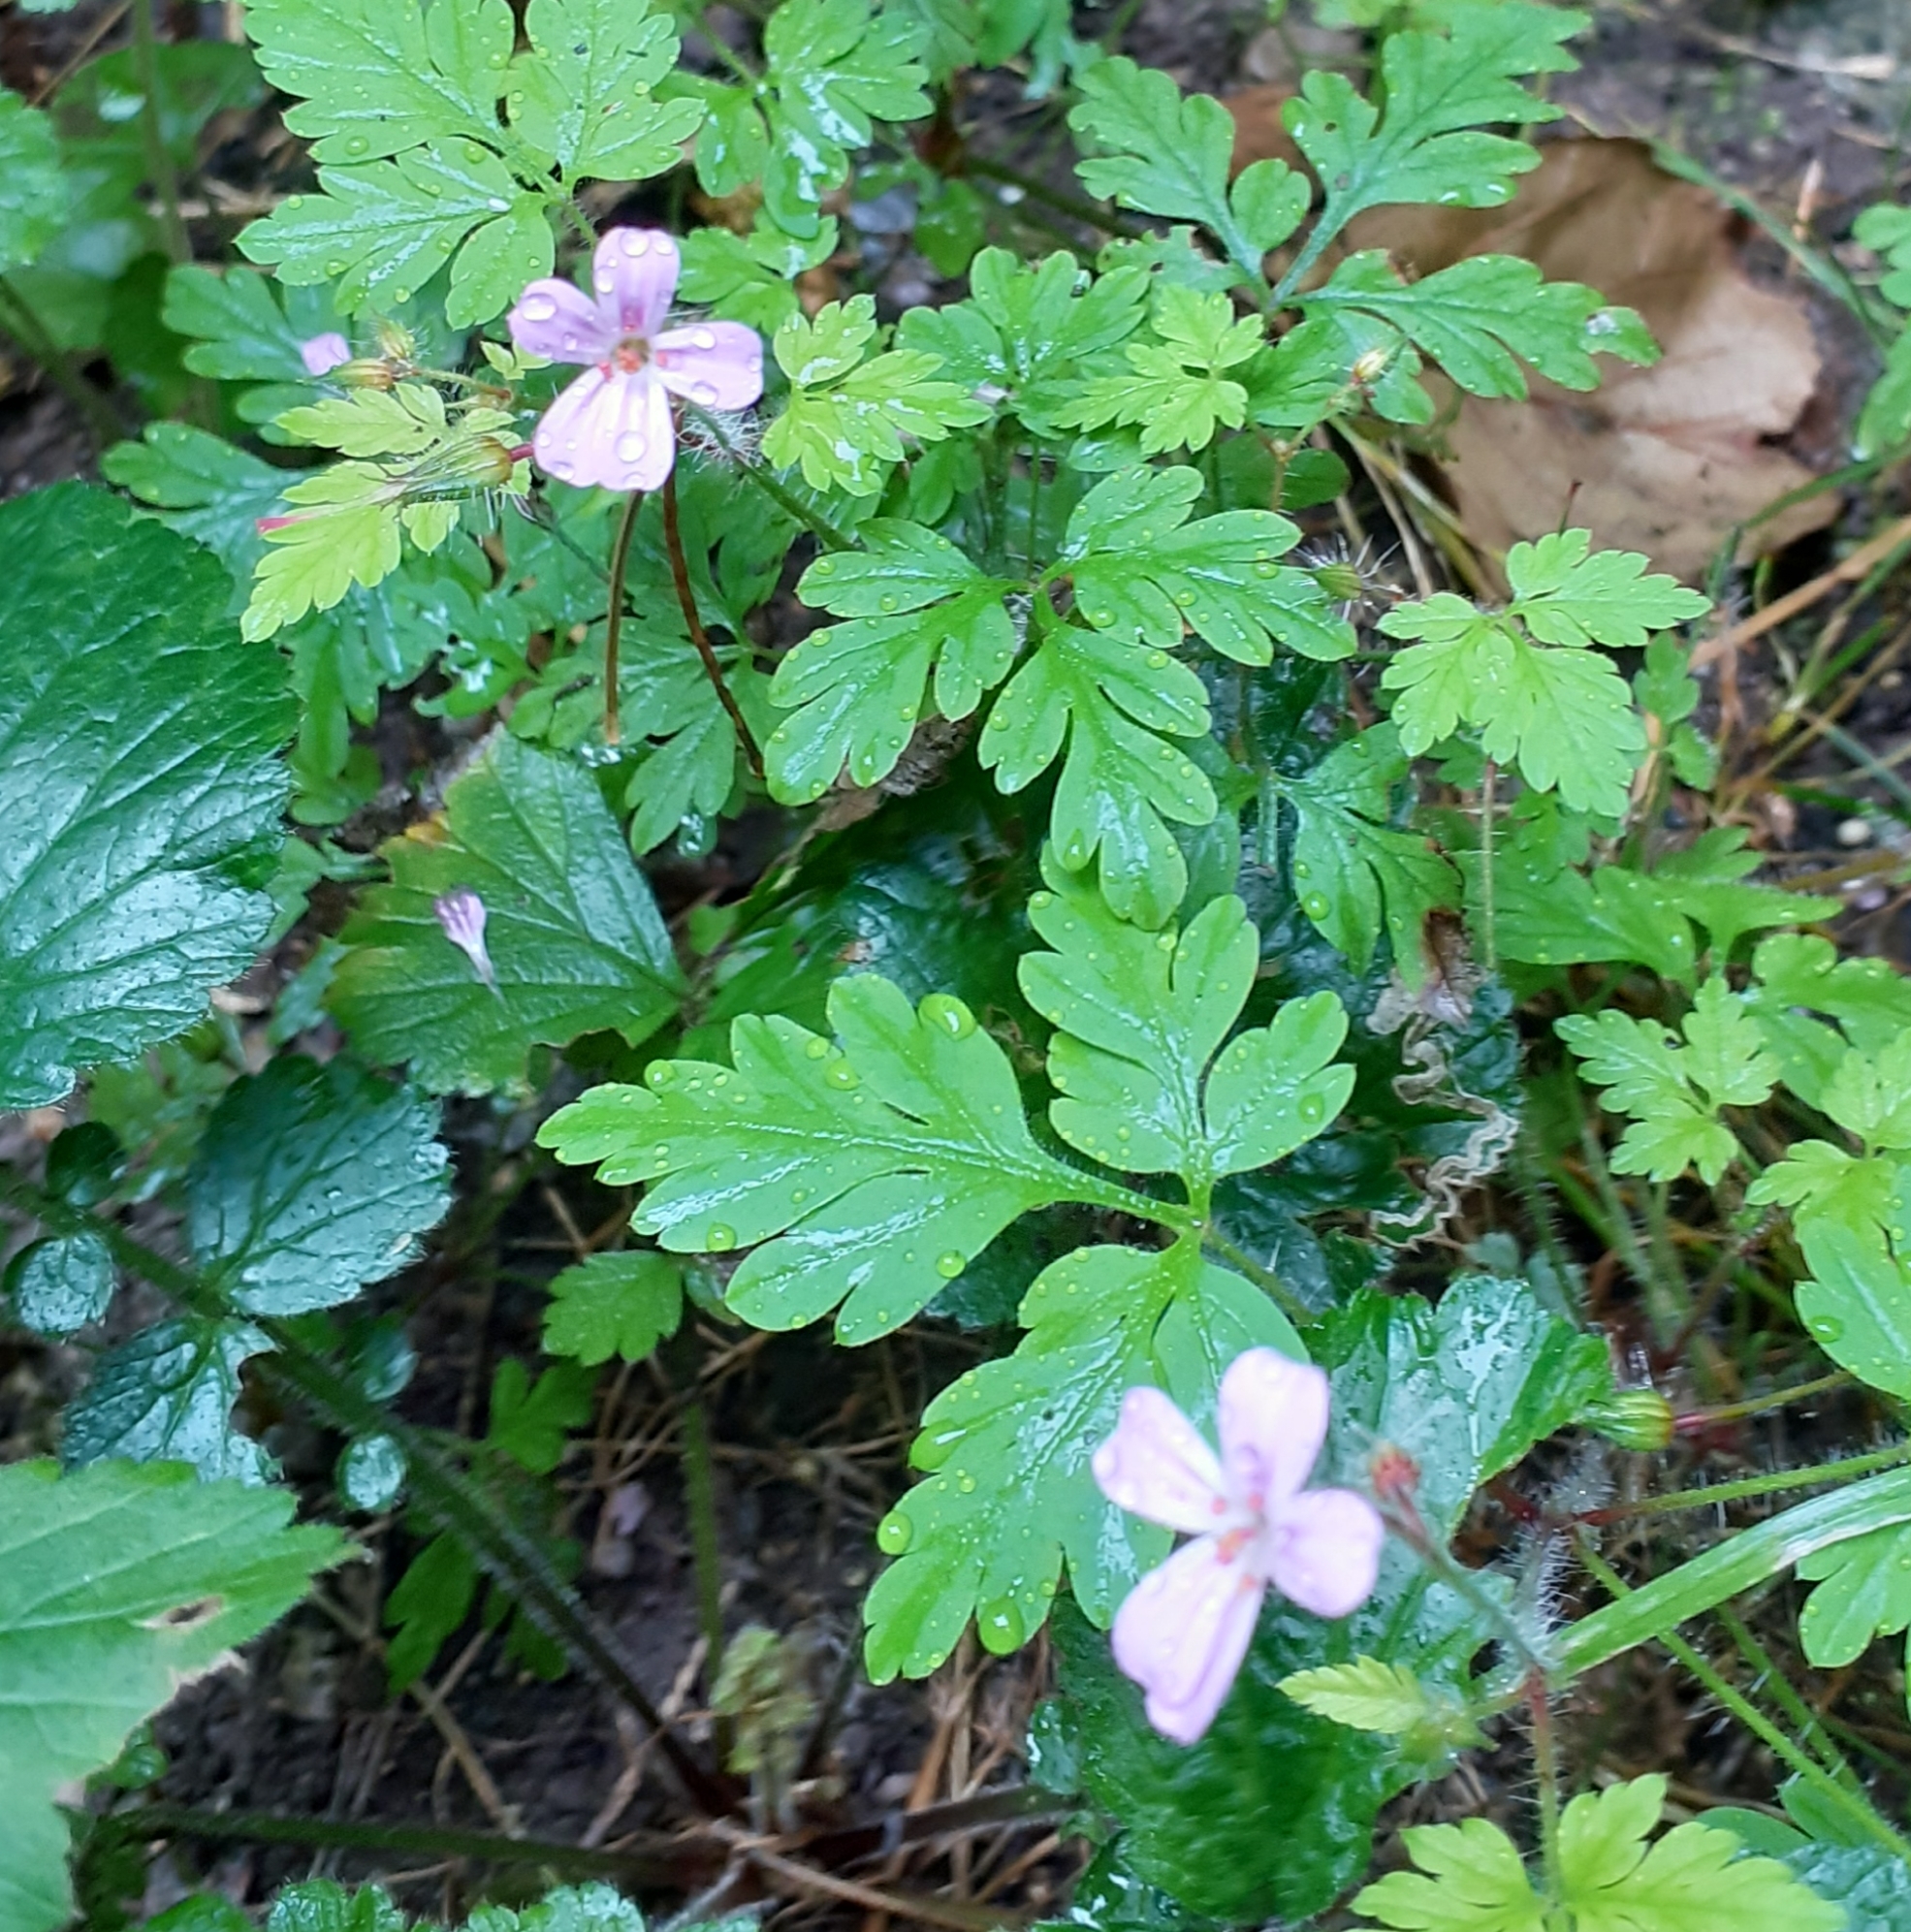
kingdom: Plantae
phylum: Tracheophyta
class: Magnoliopsida
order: Geraniales
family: Geraniaceae
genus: Geranium
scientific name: Geranium robertianum
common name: Herb-robert
